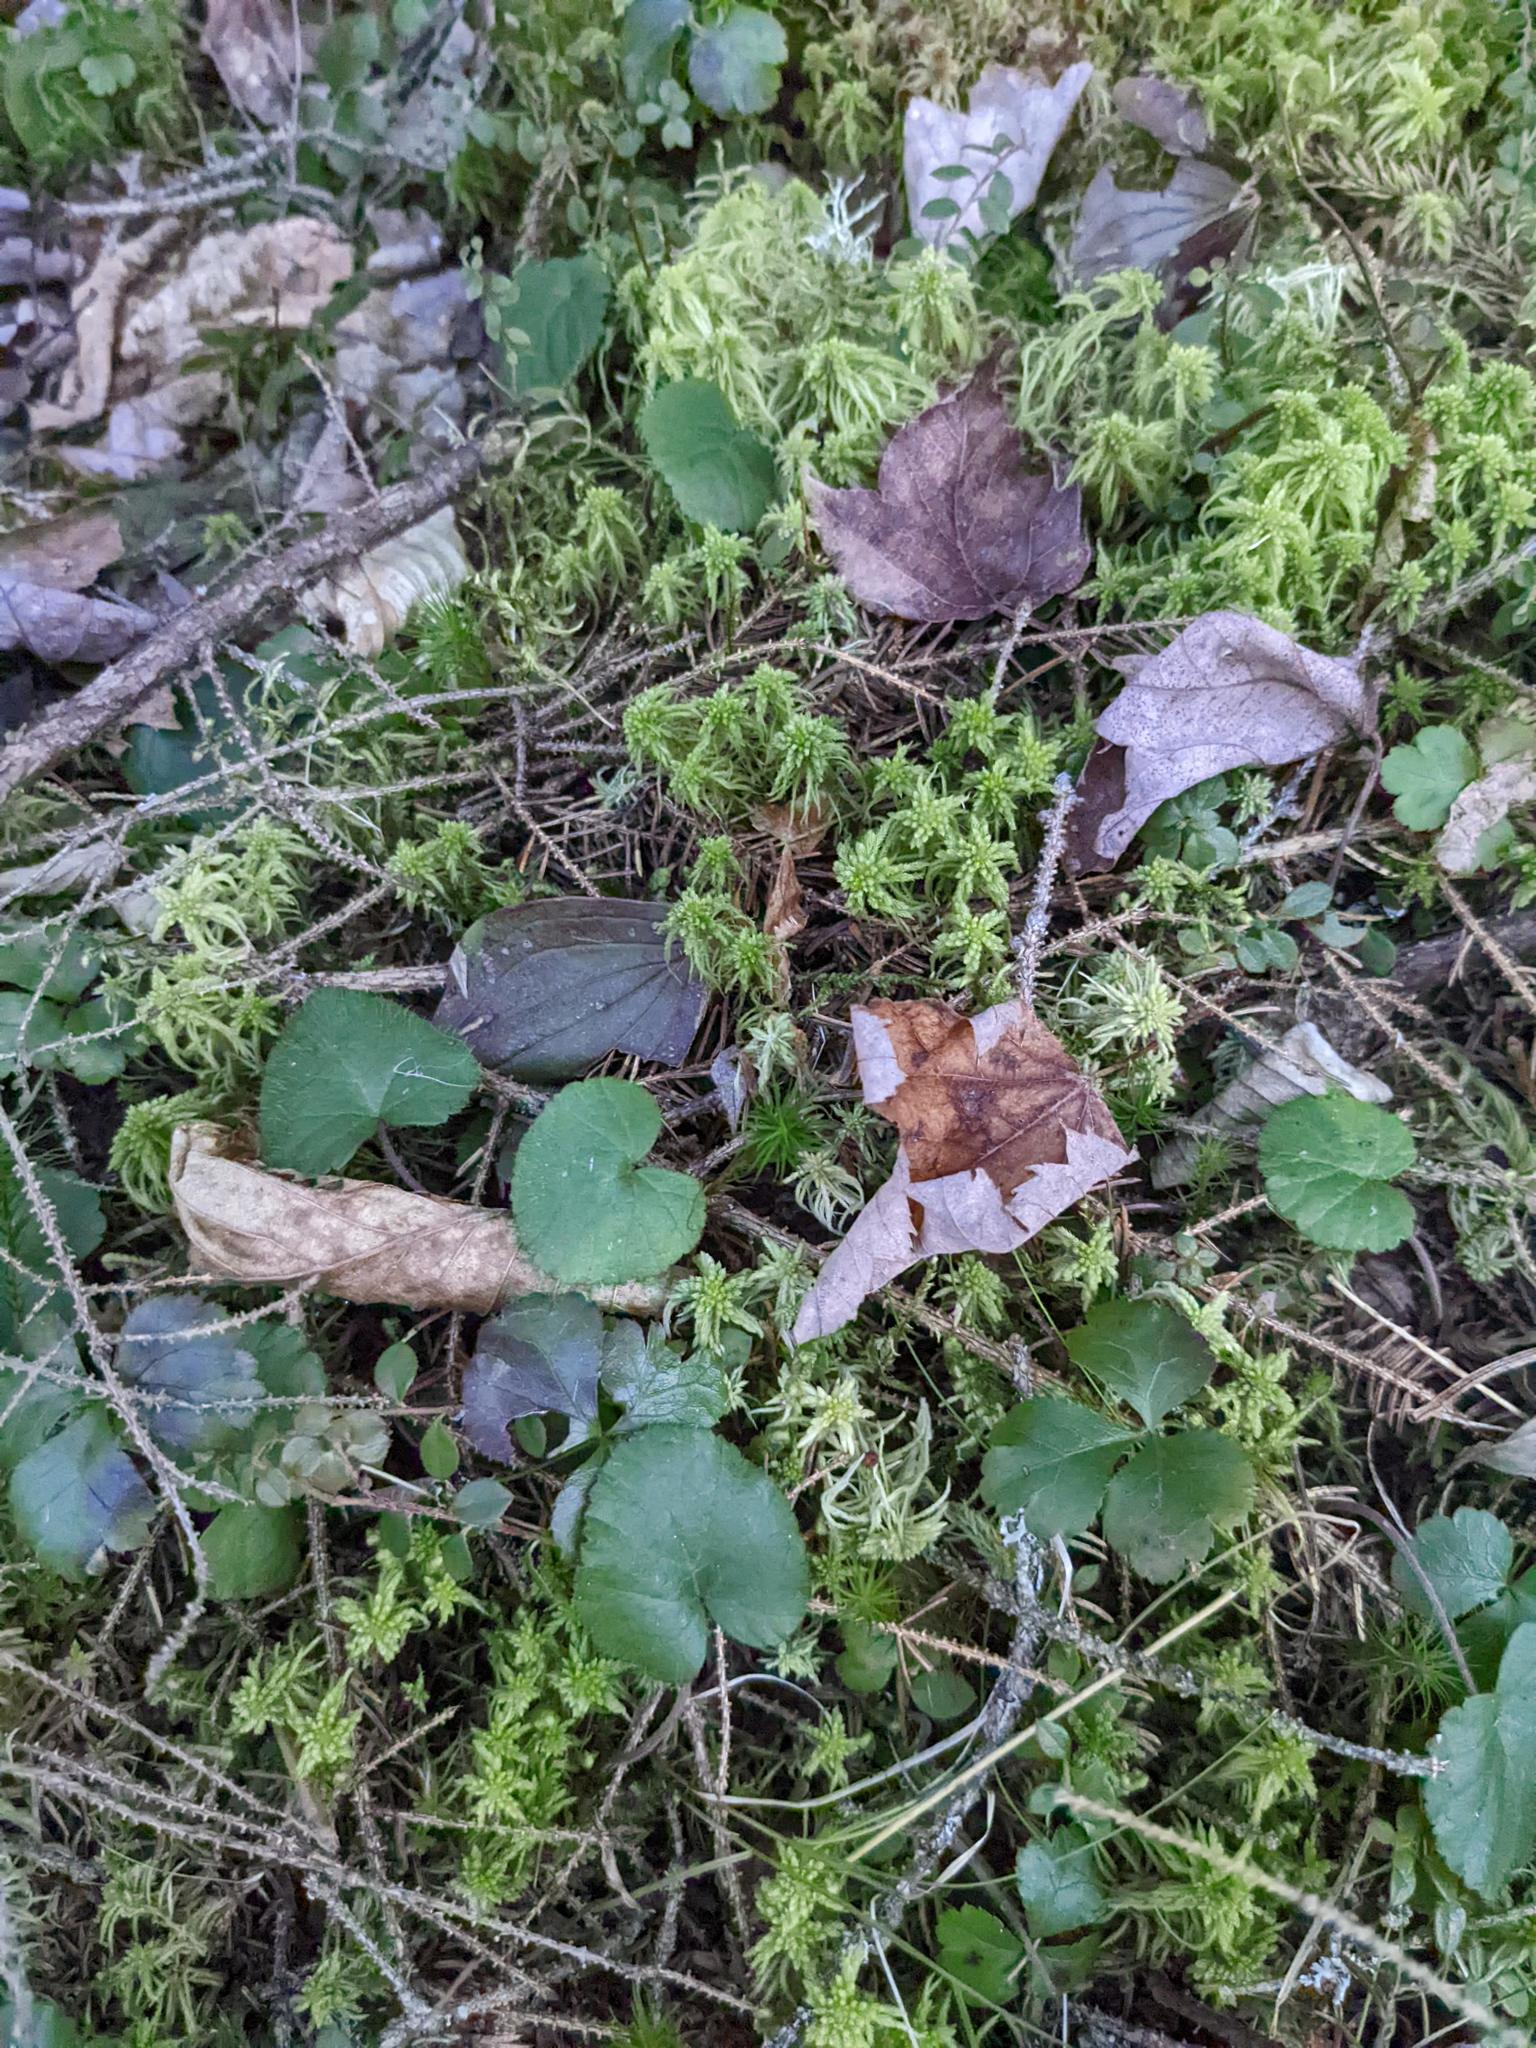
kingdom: Plantae
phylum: Tracheophyta
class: Magnoliopsida
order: Rosales
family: Rosaceae
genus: Dalibarda
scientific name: Dalibarda repens
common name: Dewdrop
